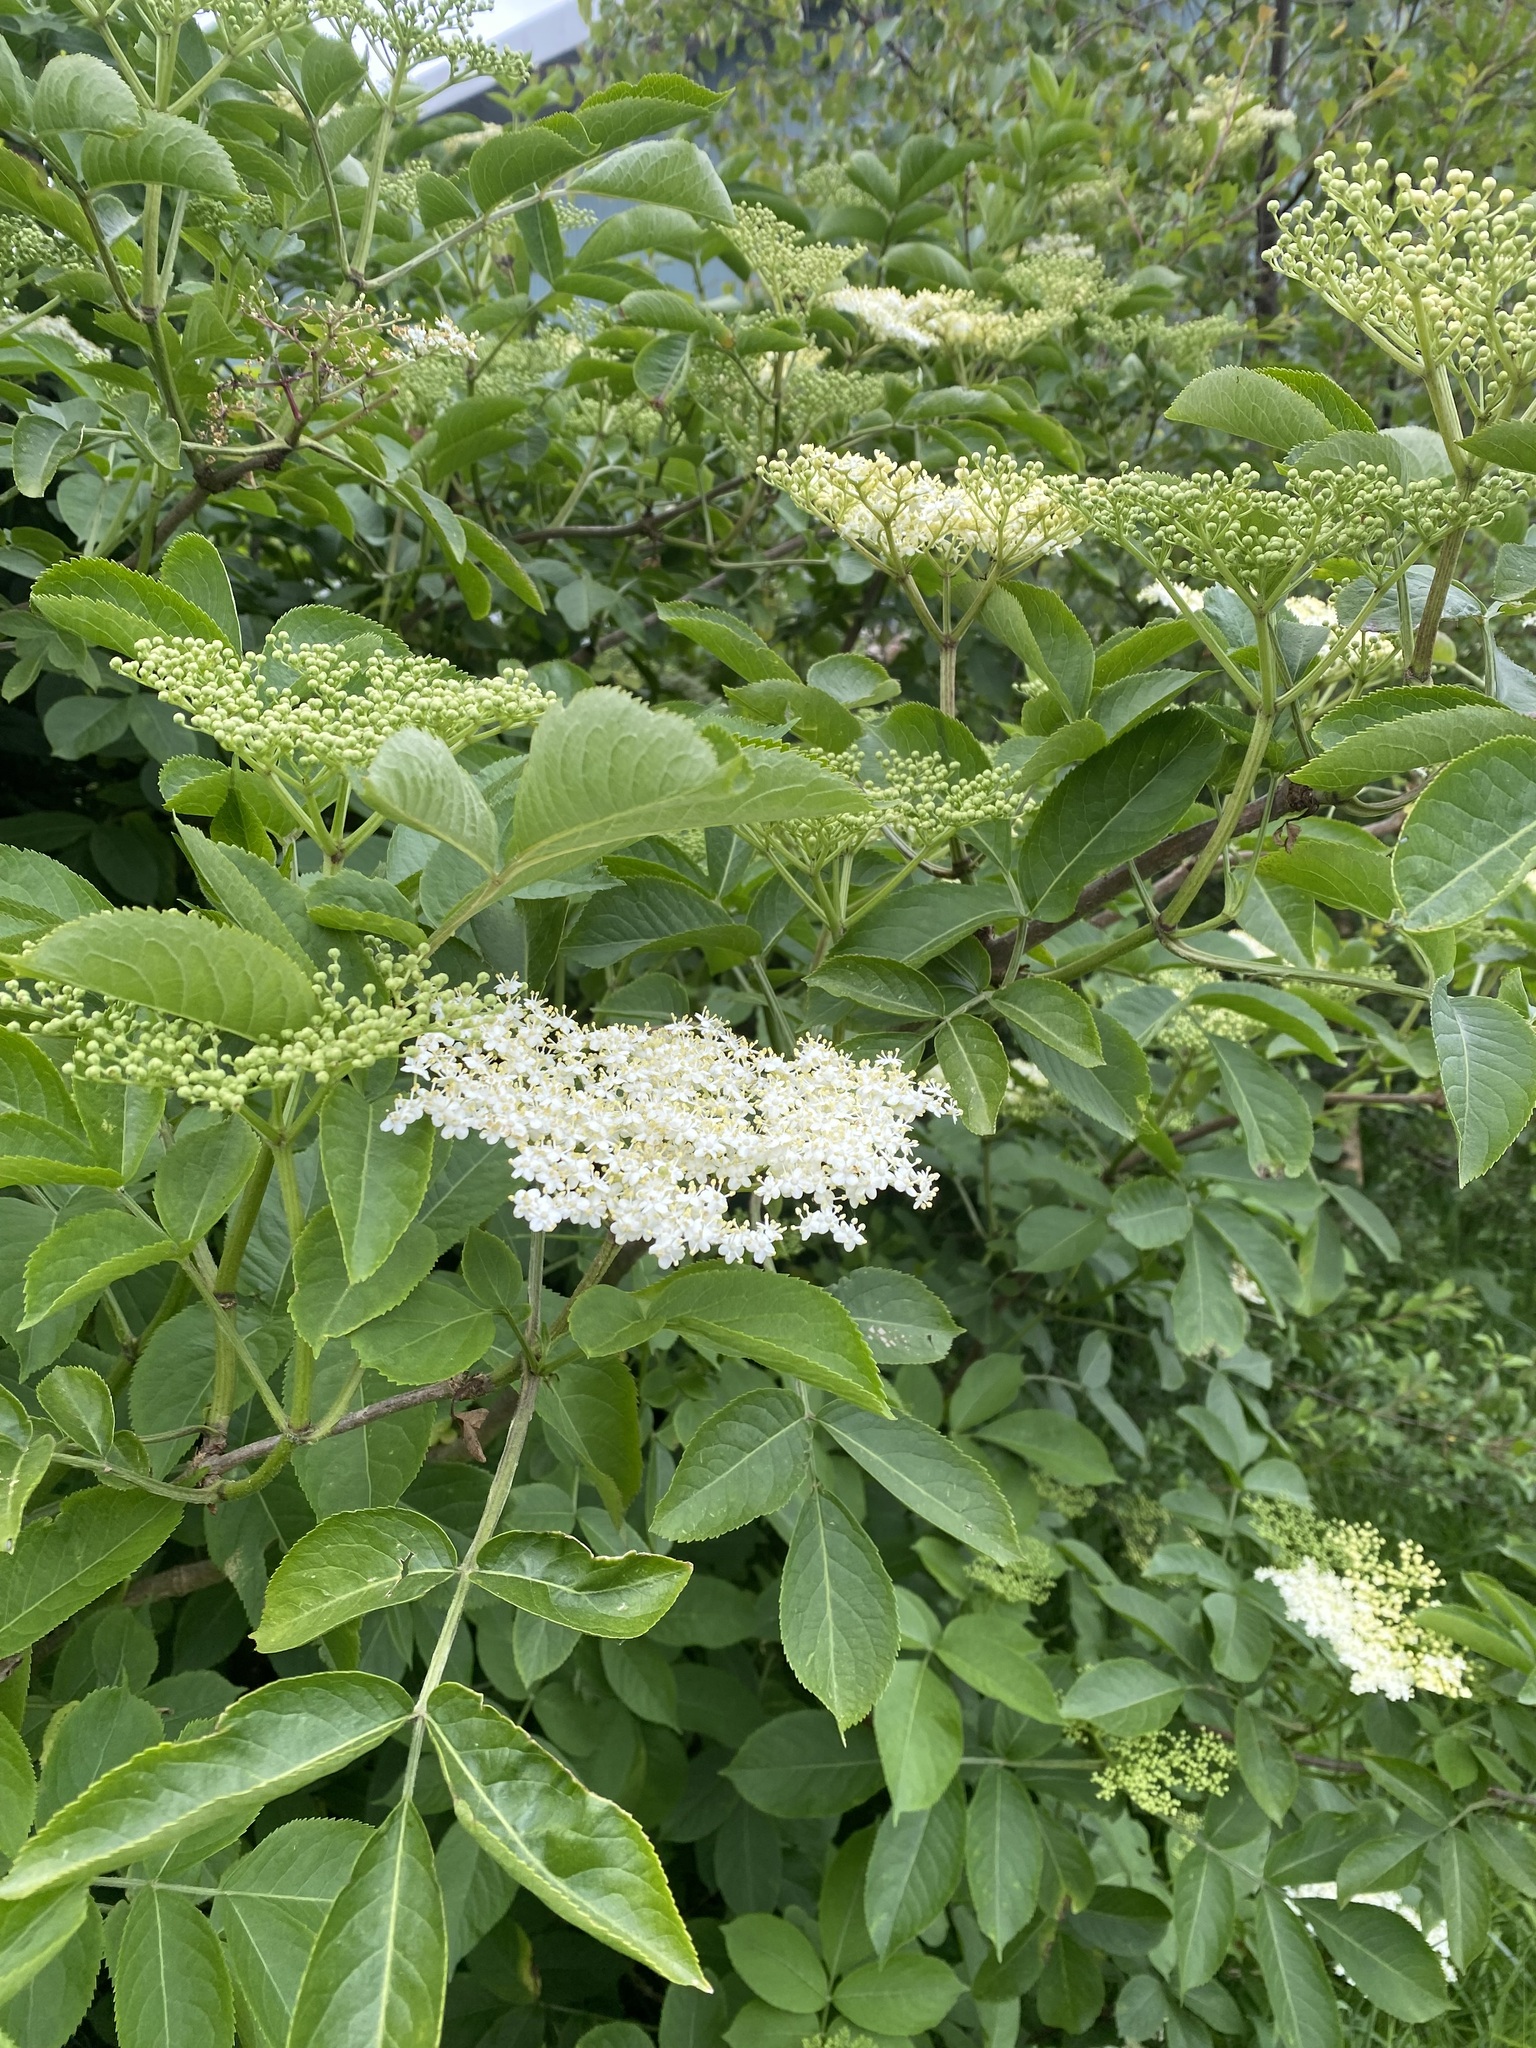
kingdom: Plantae
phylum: Tracheophyta
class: Magnoliopsida
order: Dipsacales
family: Viburnaceae
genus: Sambucus
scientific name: Sambucus nigra
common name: Elder
